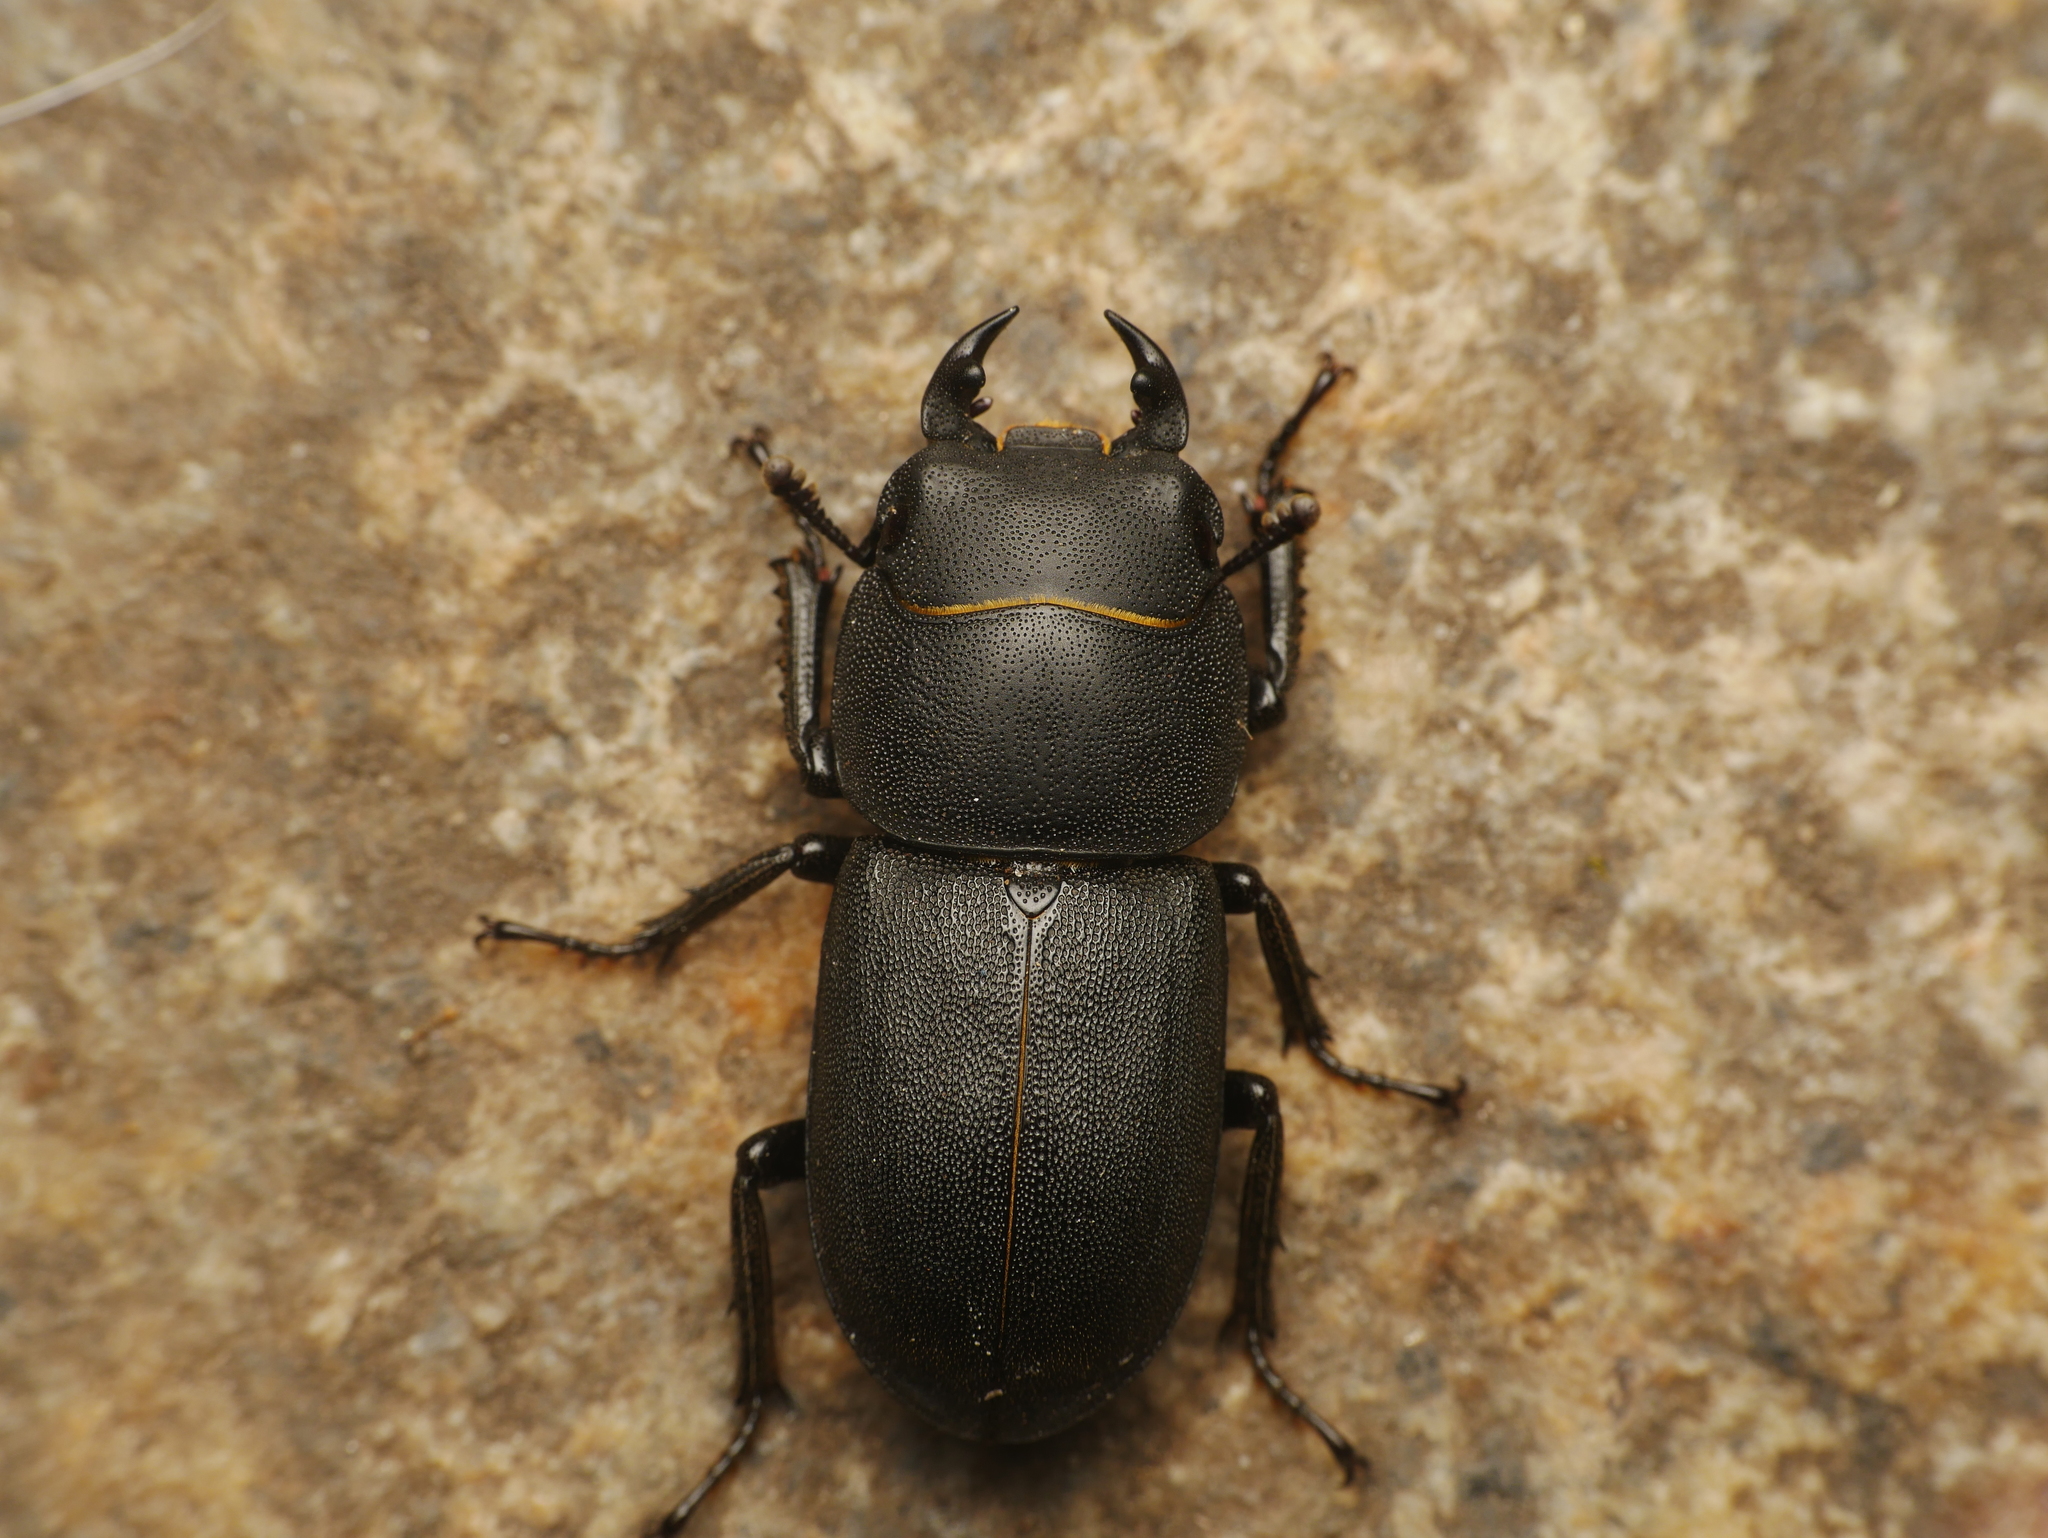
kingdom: Animalia
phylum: Arthropoda
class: Insecta
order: Coleoptera
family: Lucanidae
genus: Dorcus
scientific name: Dorcus parallelipipedus
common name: Lesser stag beetle
